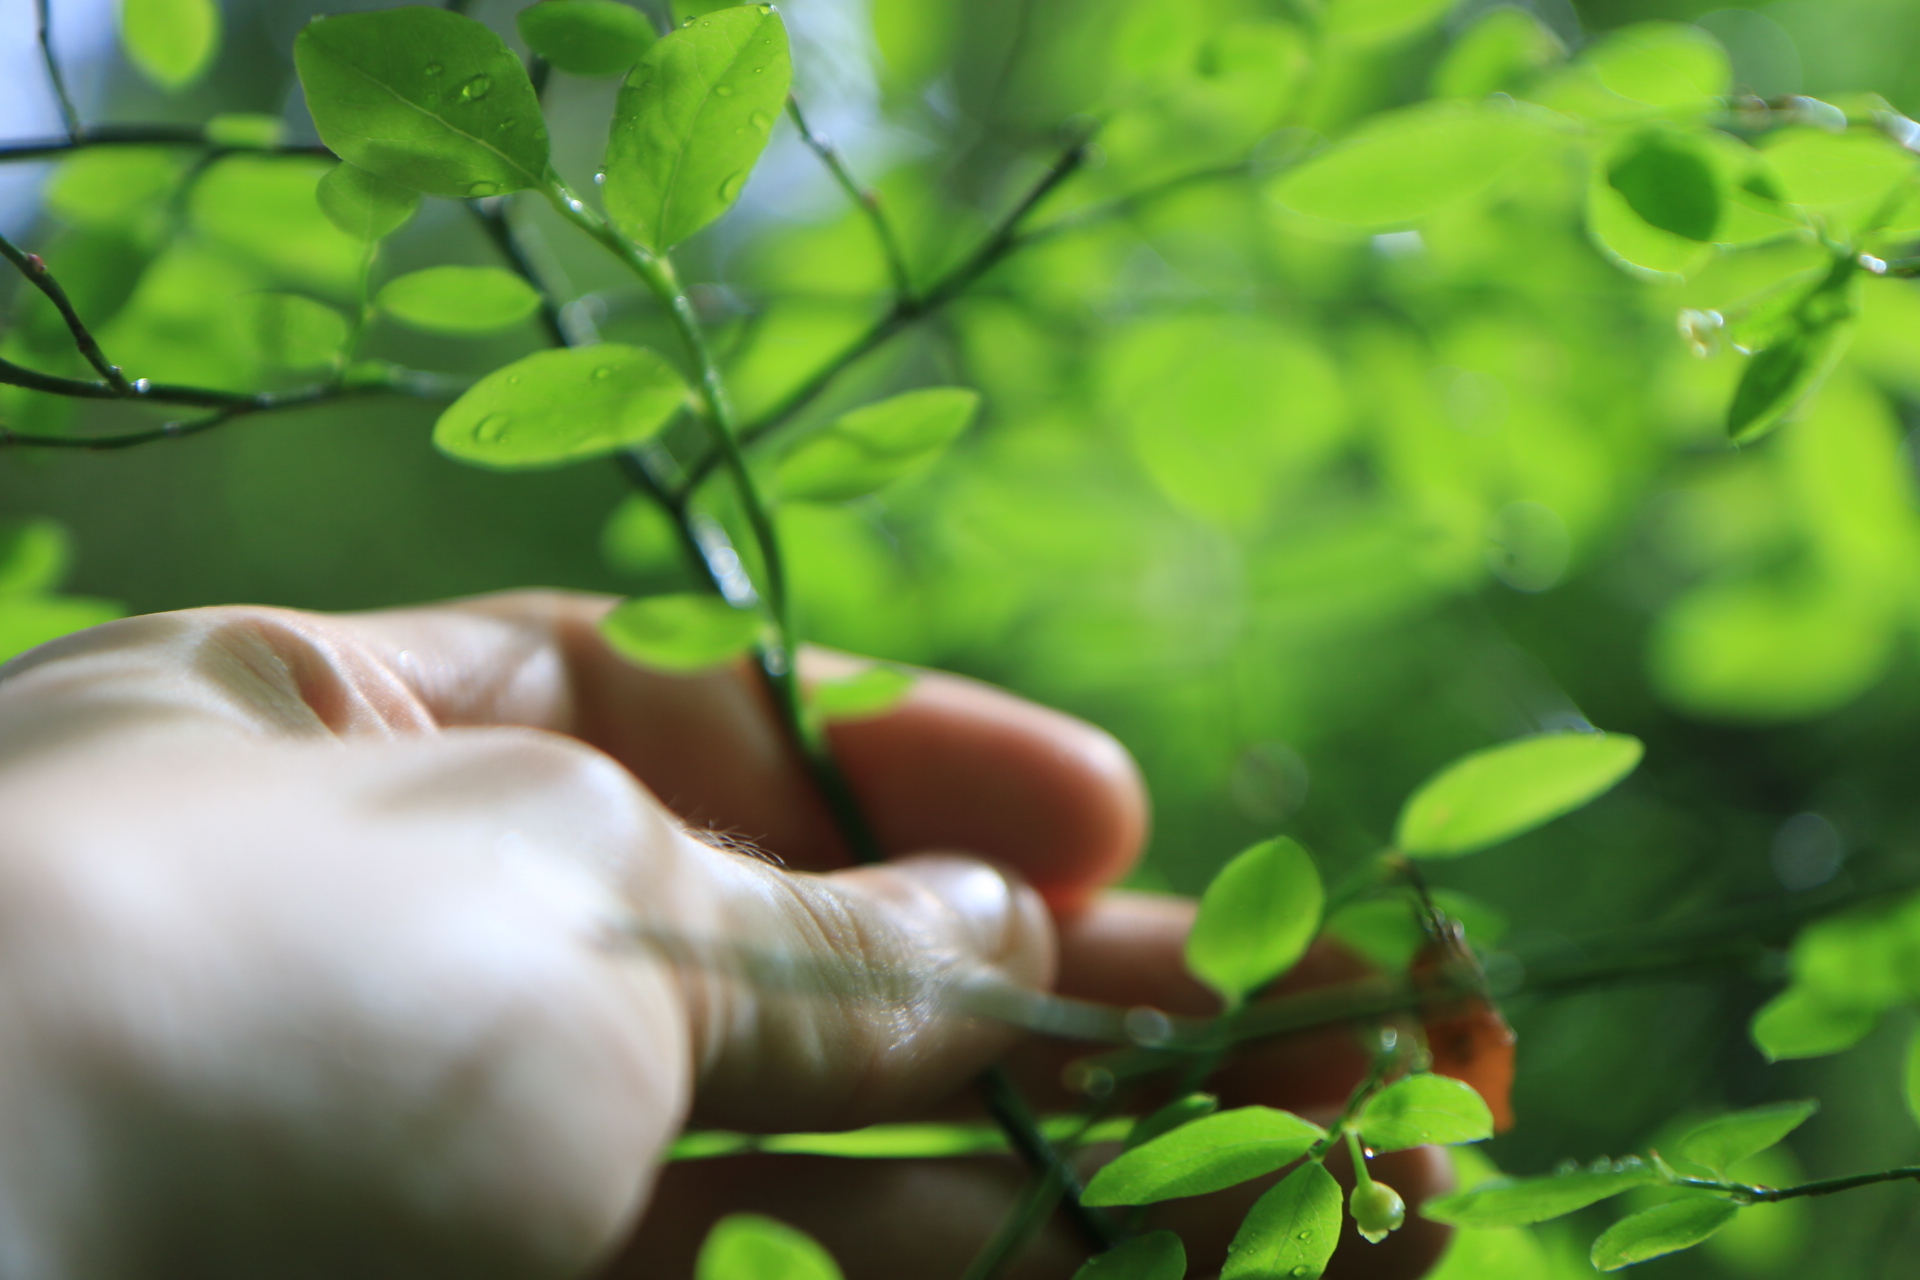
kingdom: Plantae
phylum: Tracheophyta
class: Magnoliopsida
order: Ericales
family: Ericaceae
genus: Vaccinium
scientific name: Vaccinium parvifolium
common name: Red-huckleberry
